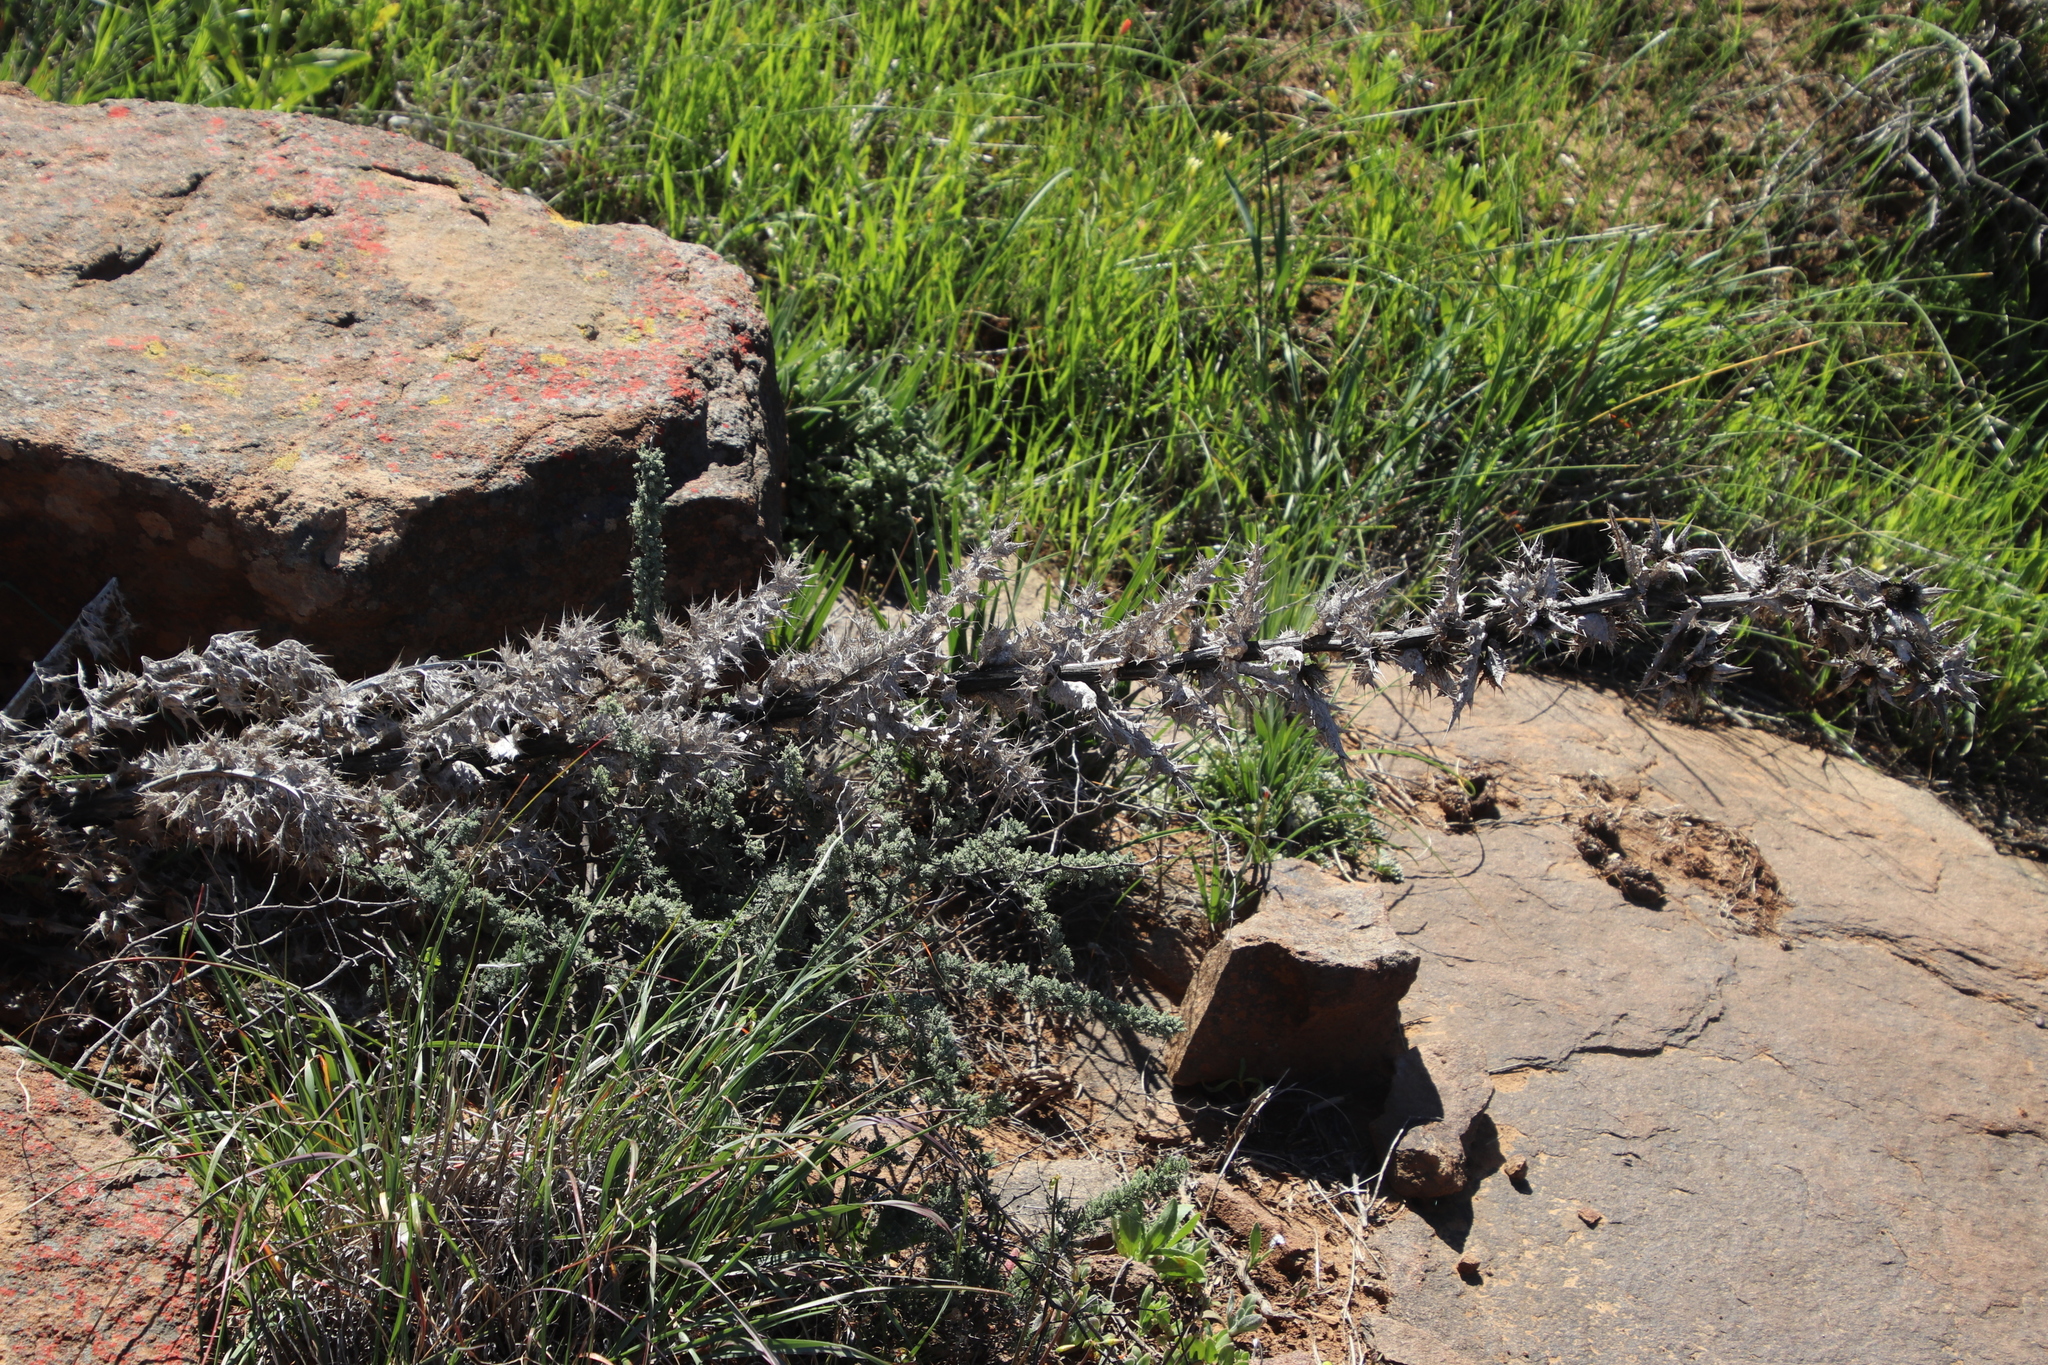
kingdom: Plantae
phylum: Tracheophyta
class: Magnoliopsida
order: Asterales
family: Asteraceae
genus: Berkheya
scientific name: Berkheya glabrata
